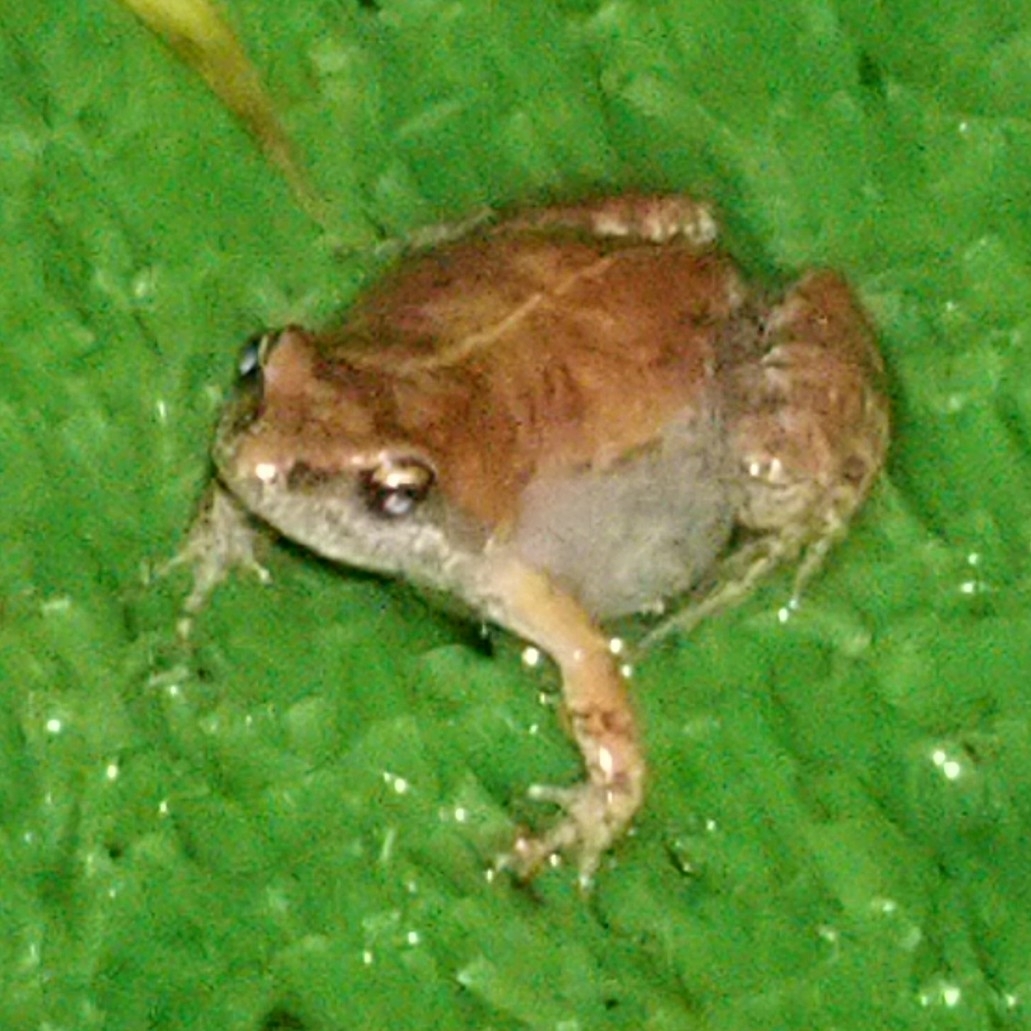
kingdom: Animalia
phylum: Chordata
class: Amphibia
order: Anura
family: Pyxicephalidae
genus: Cacosternum
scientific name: Cacosternum nanum
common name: Bronze dainty frog
